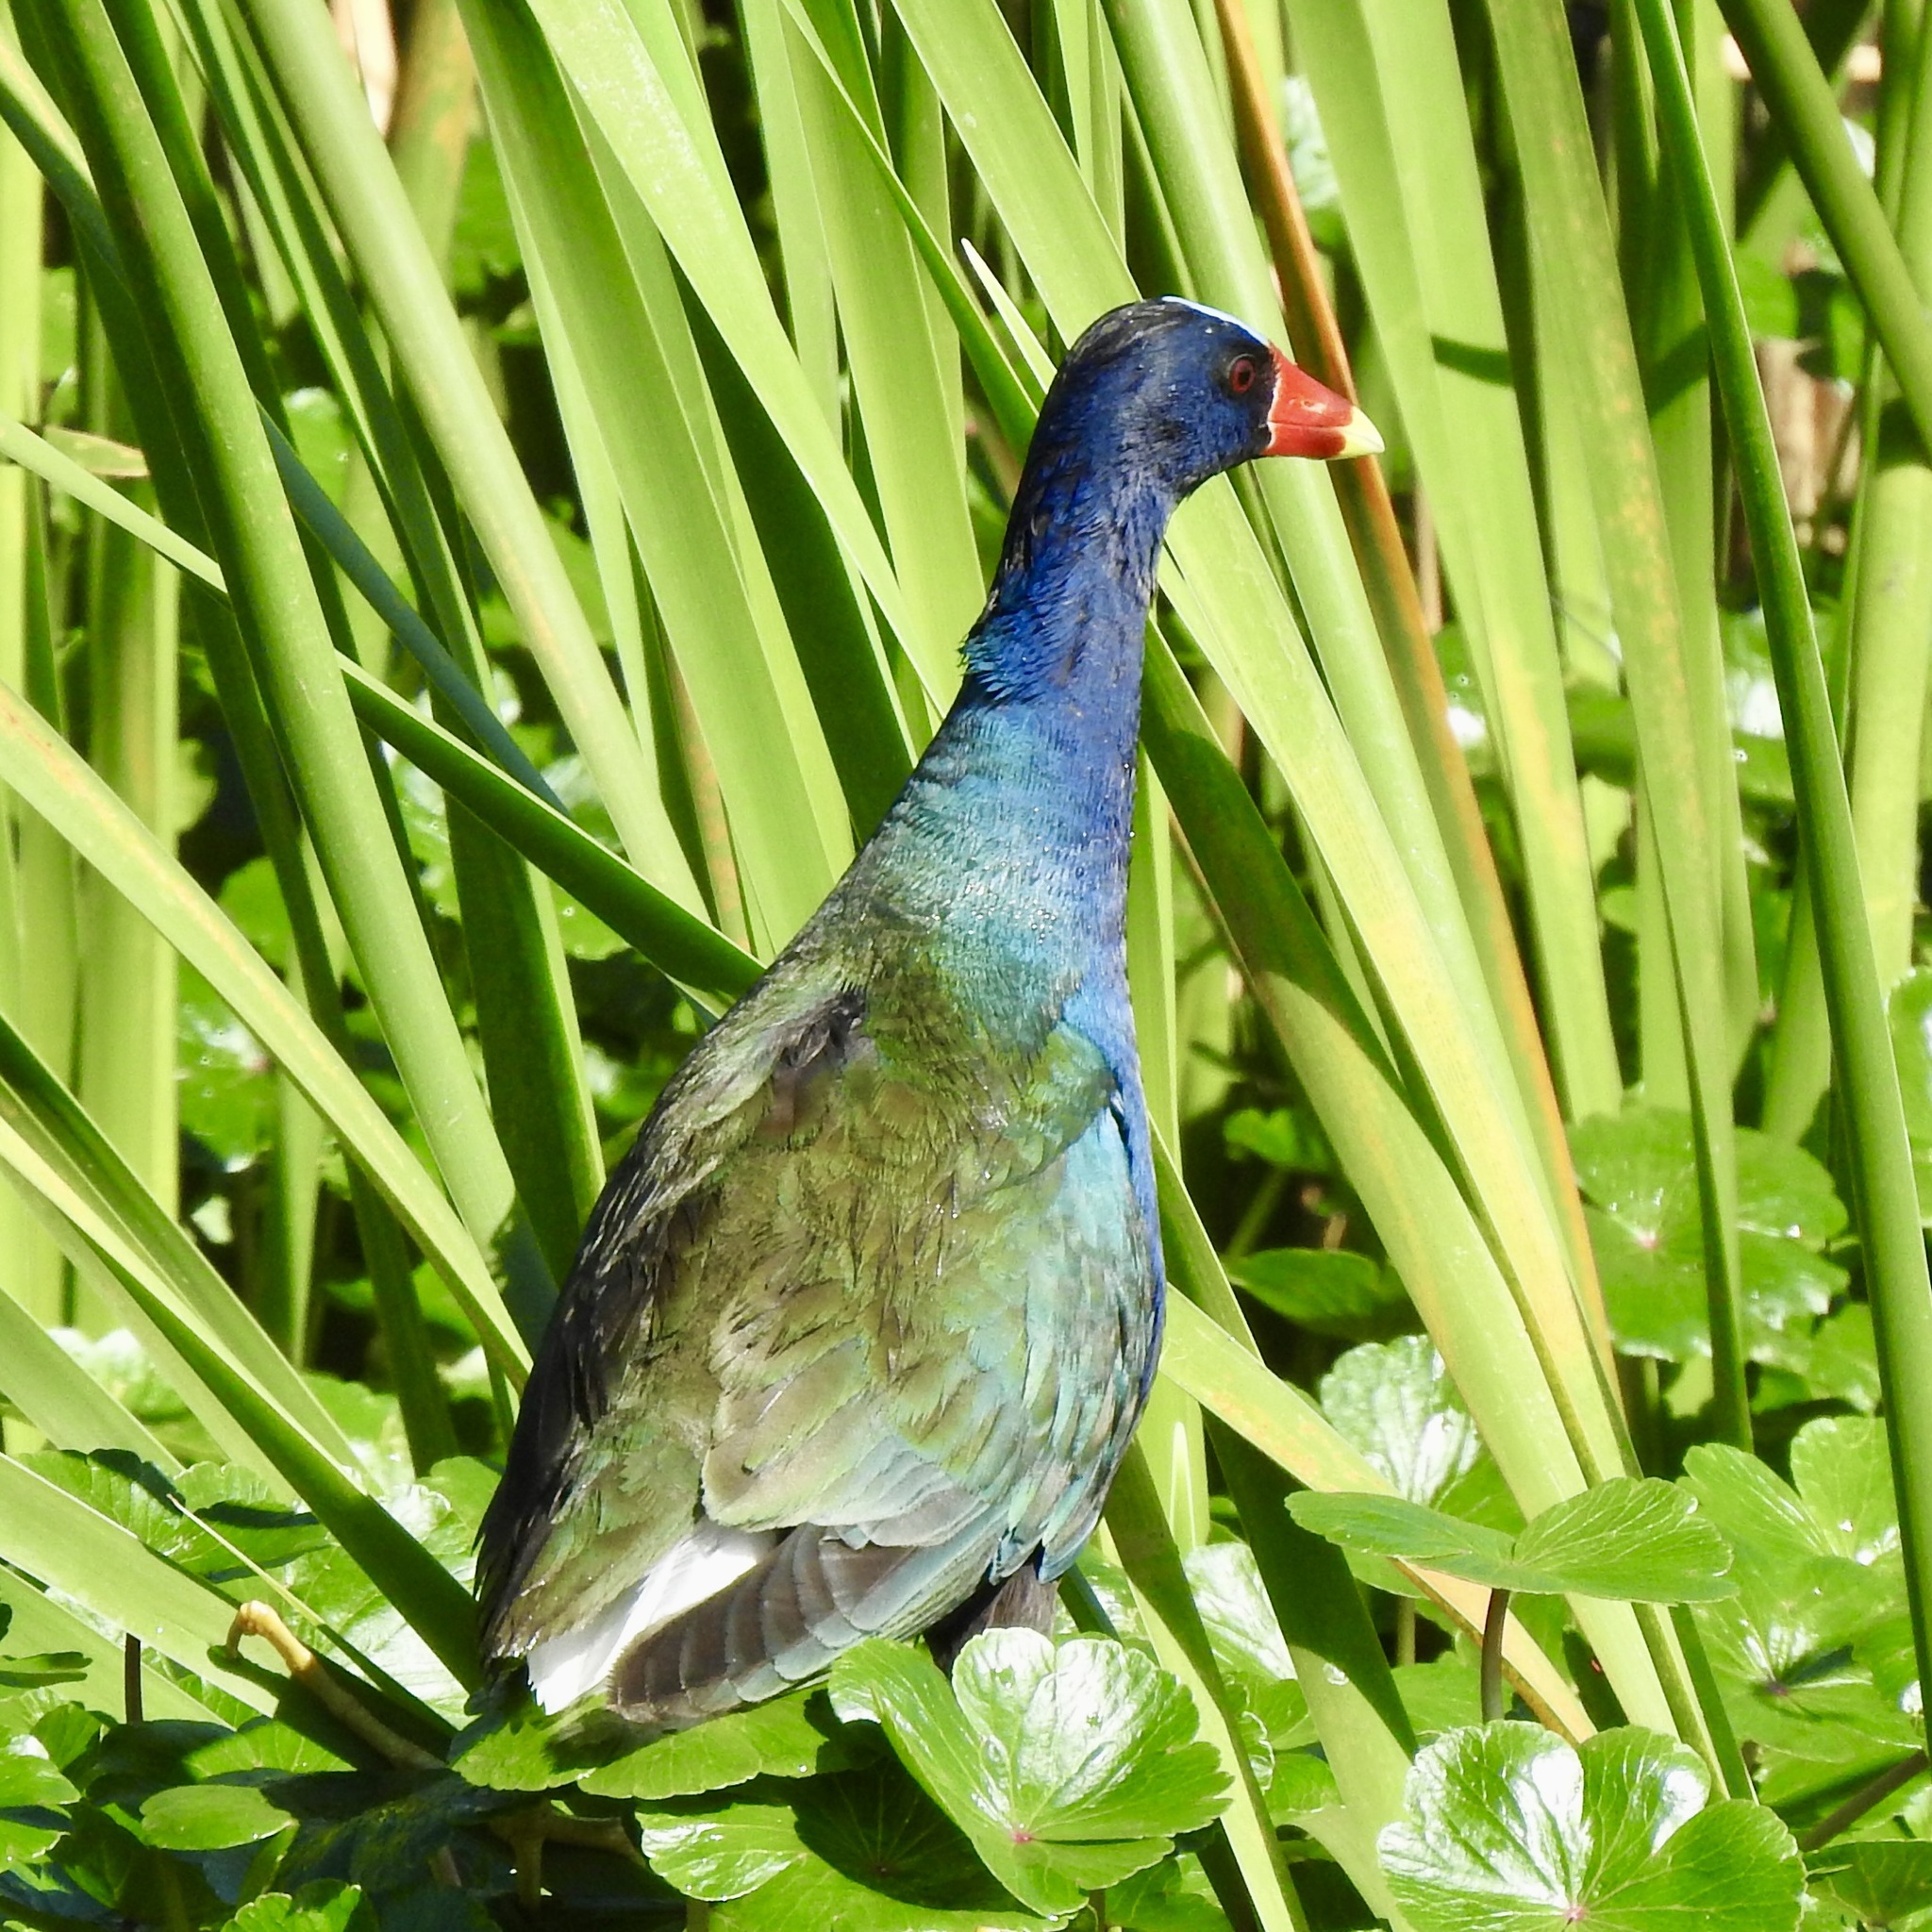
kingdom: Animalia
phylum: Chordata
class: Aves
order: Gruiformes
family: Rallidae
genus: Porphyrio
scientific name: Porphyrio martinica
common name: Purple gallinule
